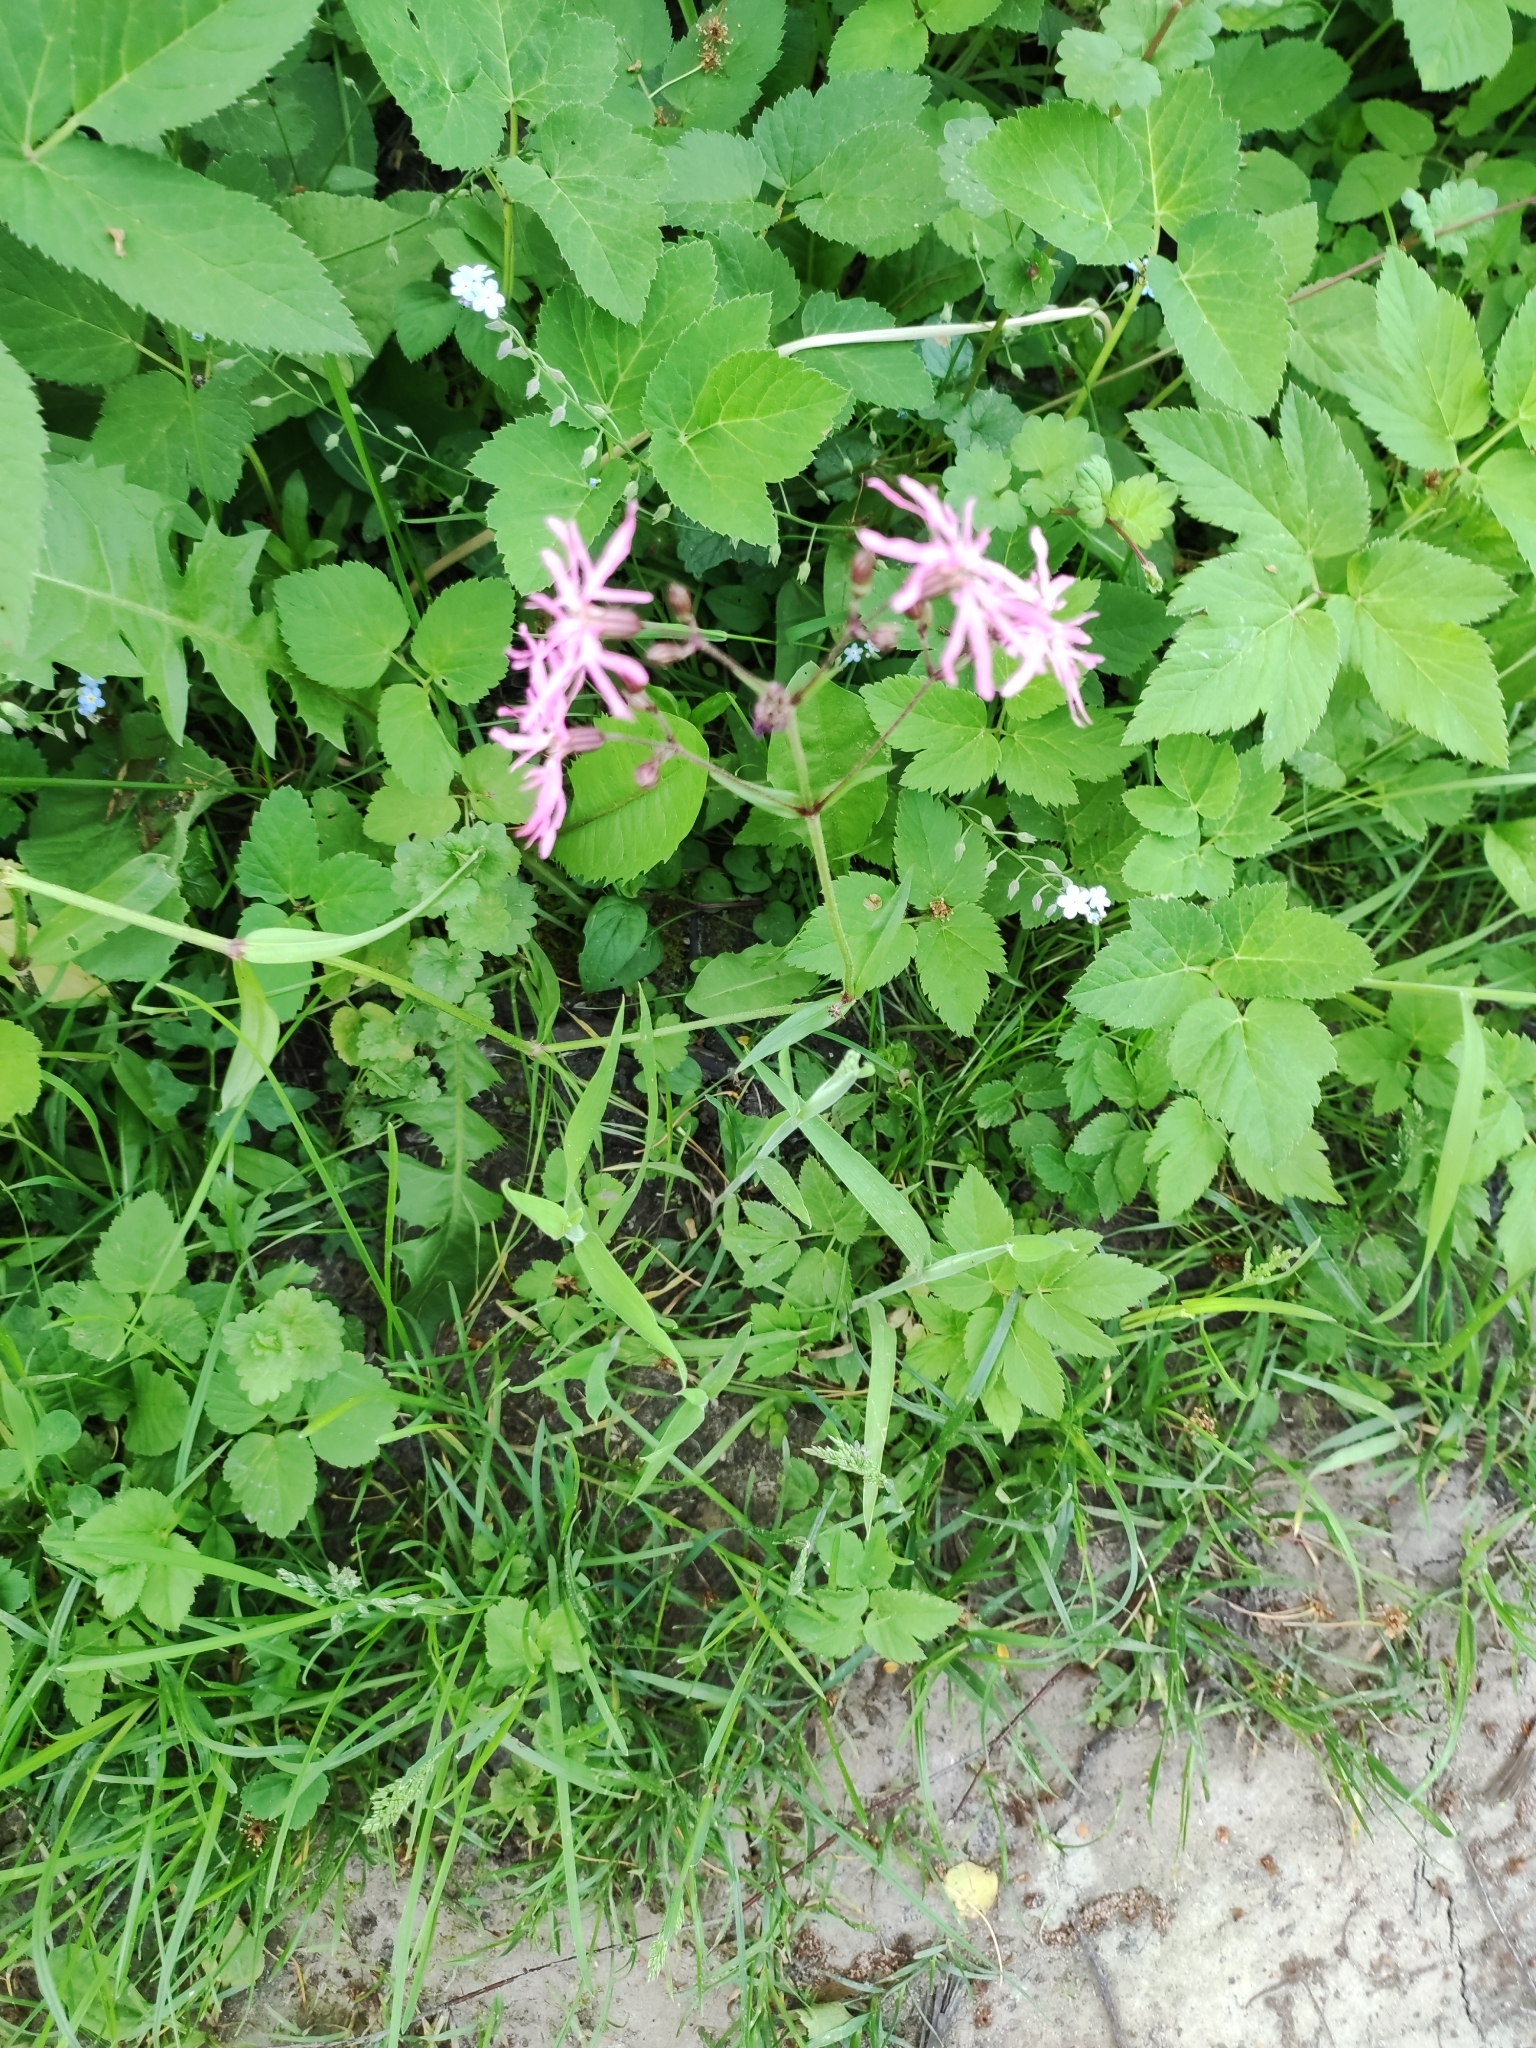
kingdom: Plantae
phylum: Tracheophyta
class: Magnoliopsida
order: Caryophyllales
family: Caryophyllaceae
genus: Silene
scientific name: Silene flos-cuculi
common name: Ragged-robin
